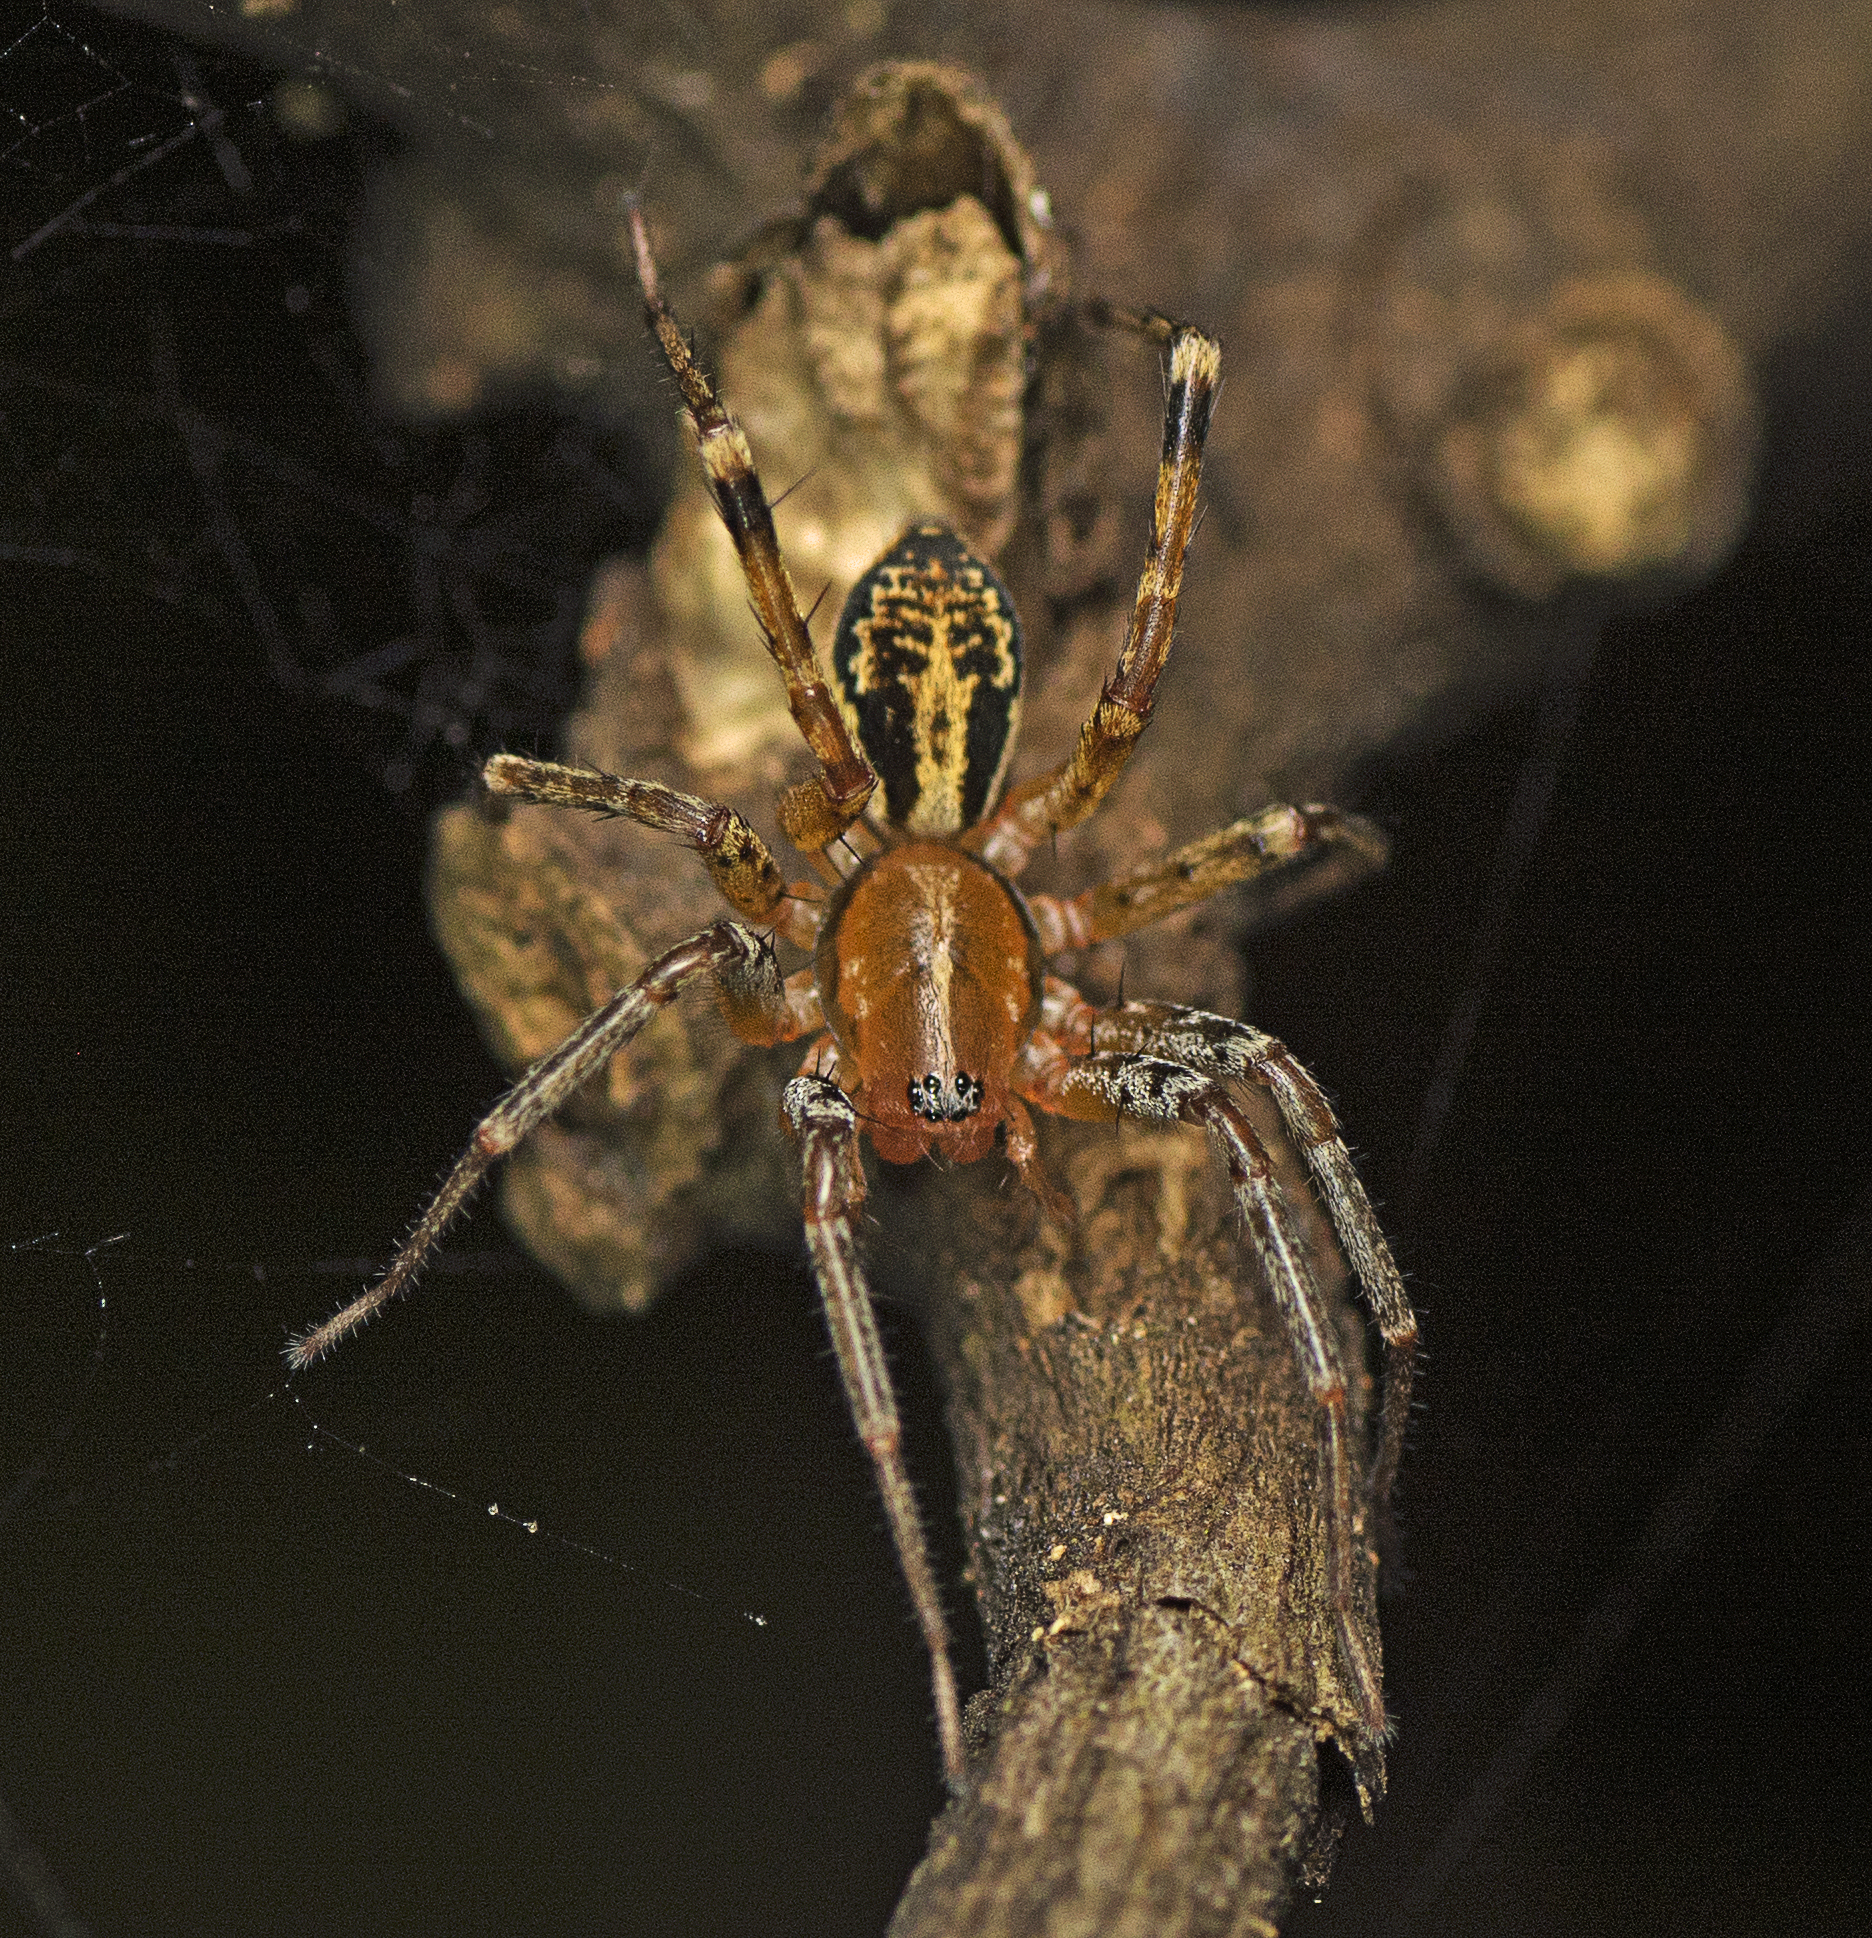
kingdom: Animalia
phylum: Arthropoda
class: Arachnida
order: Araneae
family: Corinnidae
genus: Copa
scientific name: Copa kabana
